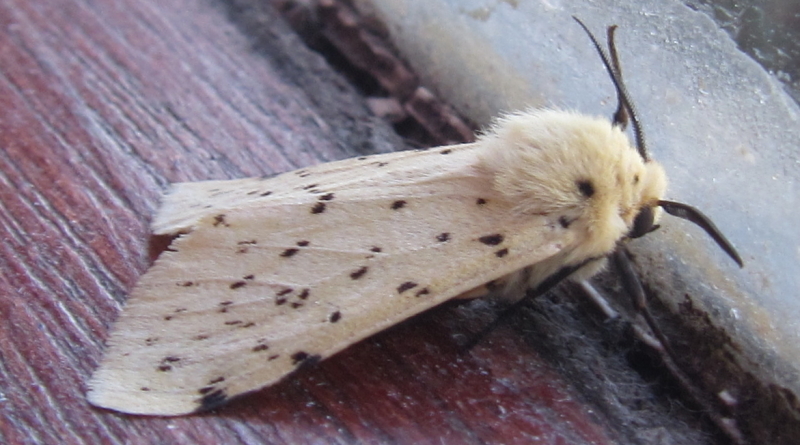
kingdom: Animalia
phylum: Arthropoda
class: Insecta
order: Lepidoptera
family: Erebidae
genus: Eyralpenus
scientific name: Eyralpenus testacea
